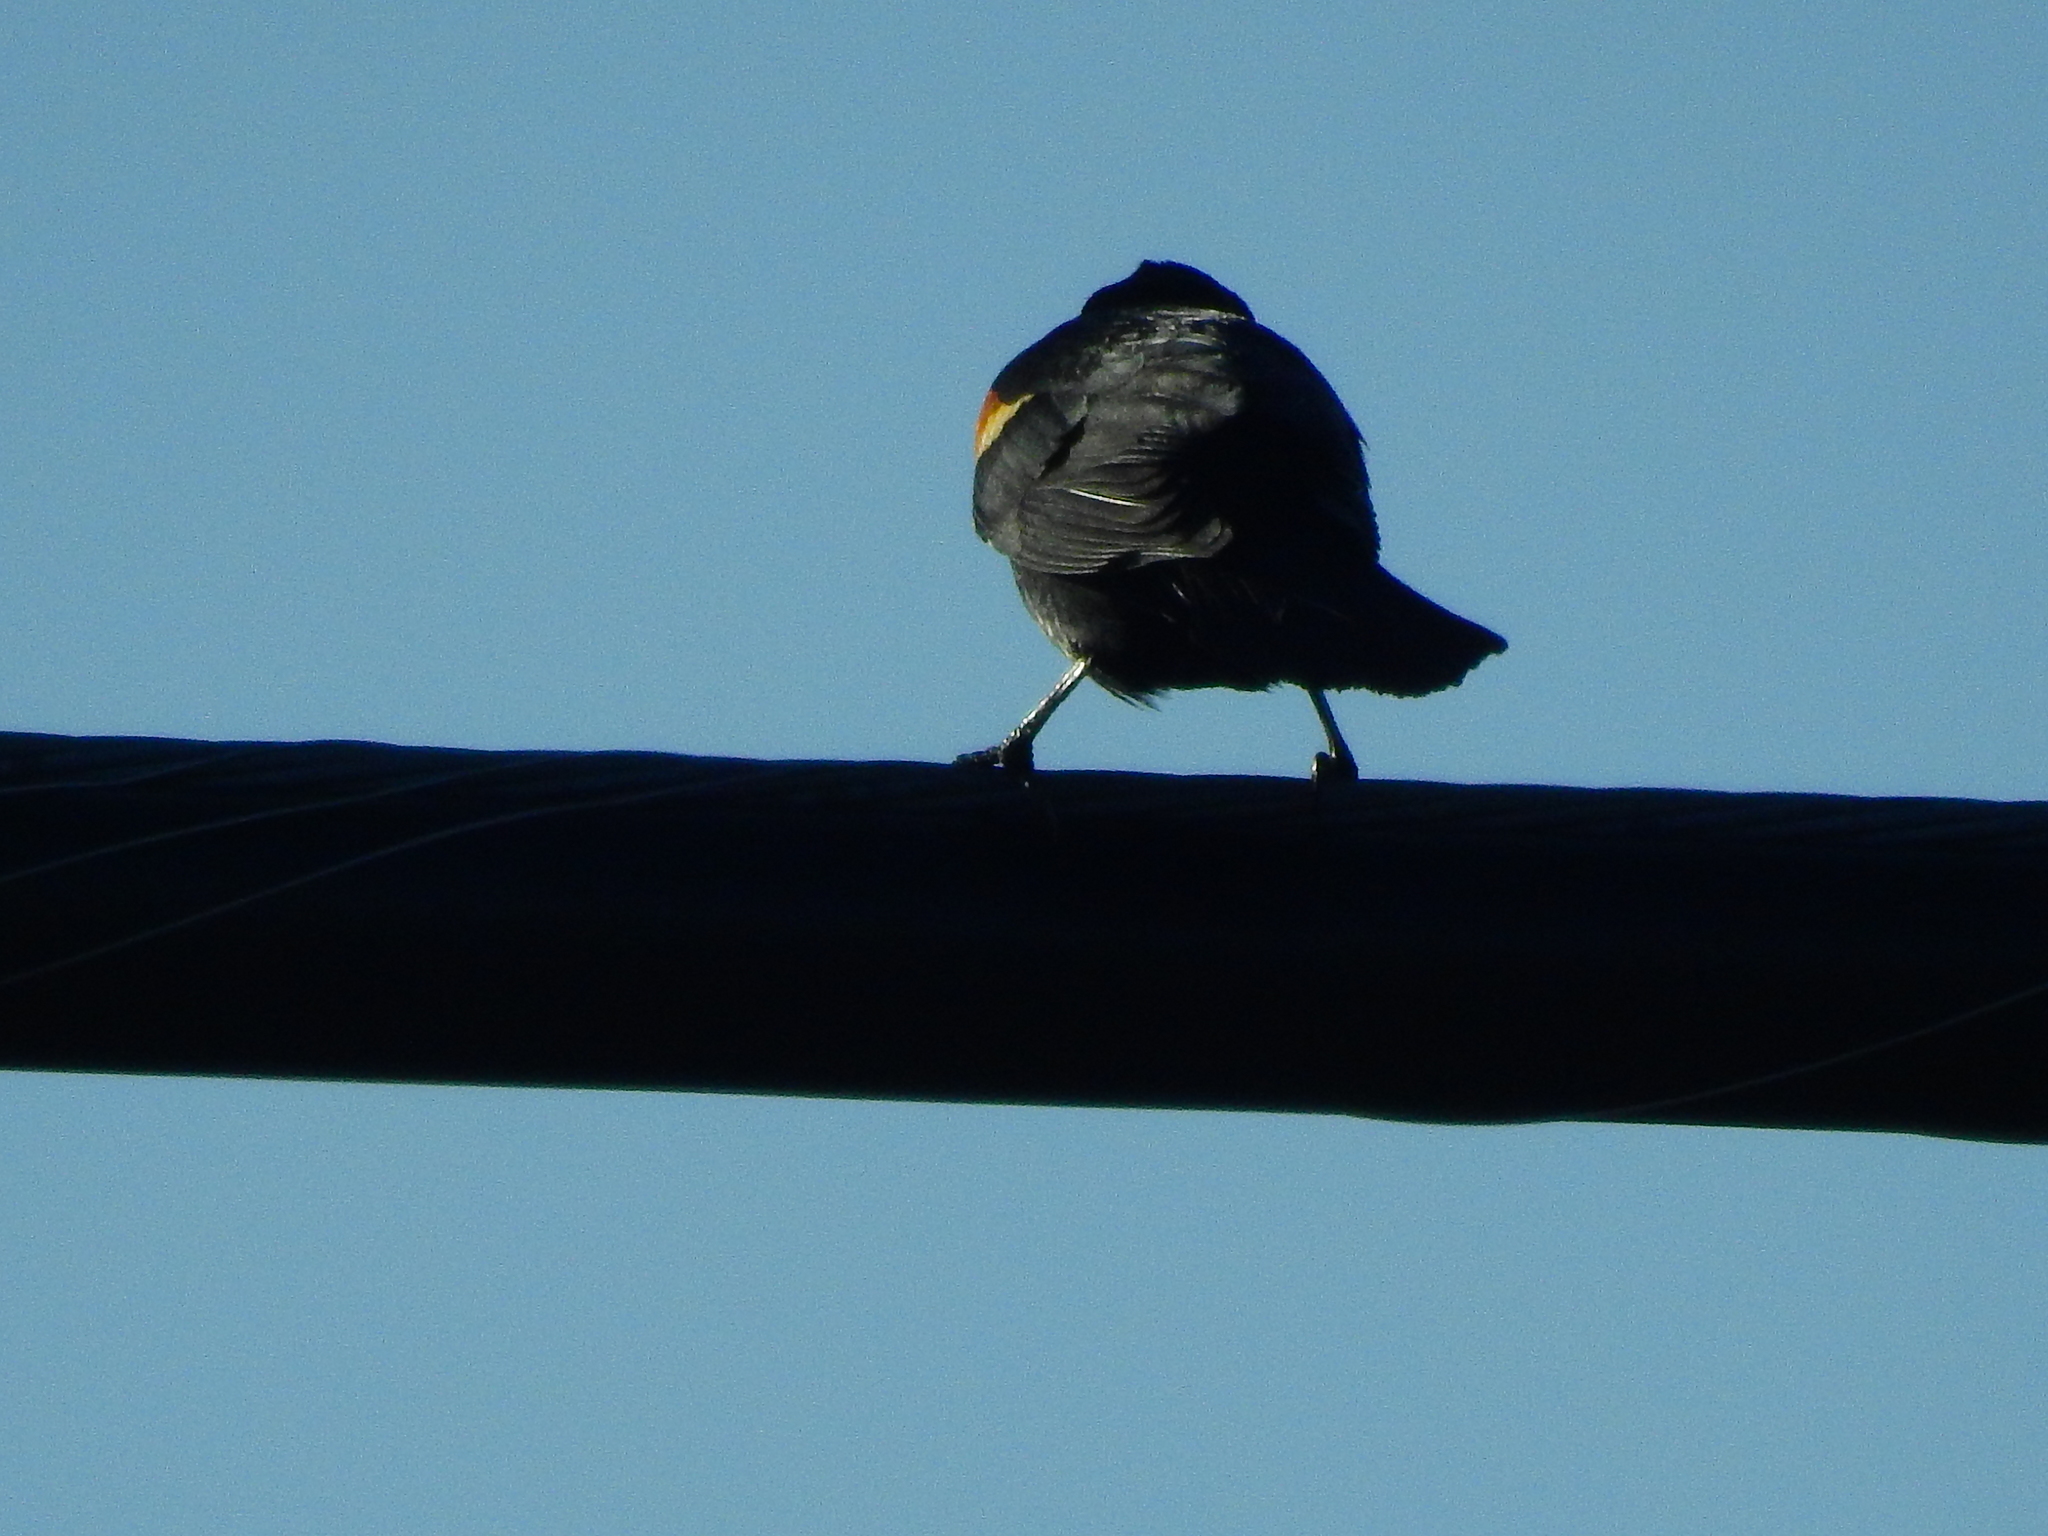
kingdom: Animalia
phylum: Chordata
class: Aves
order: Passeriformes
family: Icteridae
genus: Agelaius
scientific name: Agelaius phoeniceus
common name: Red-winged blackbird
